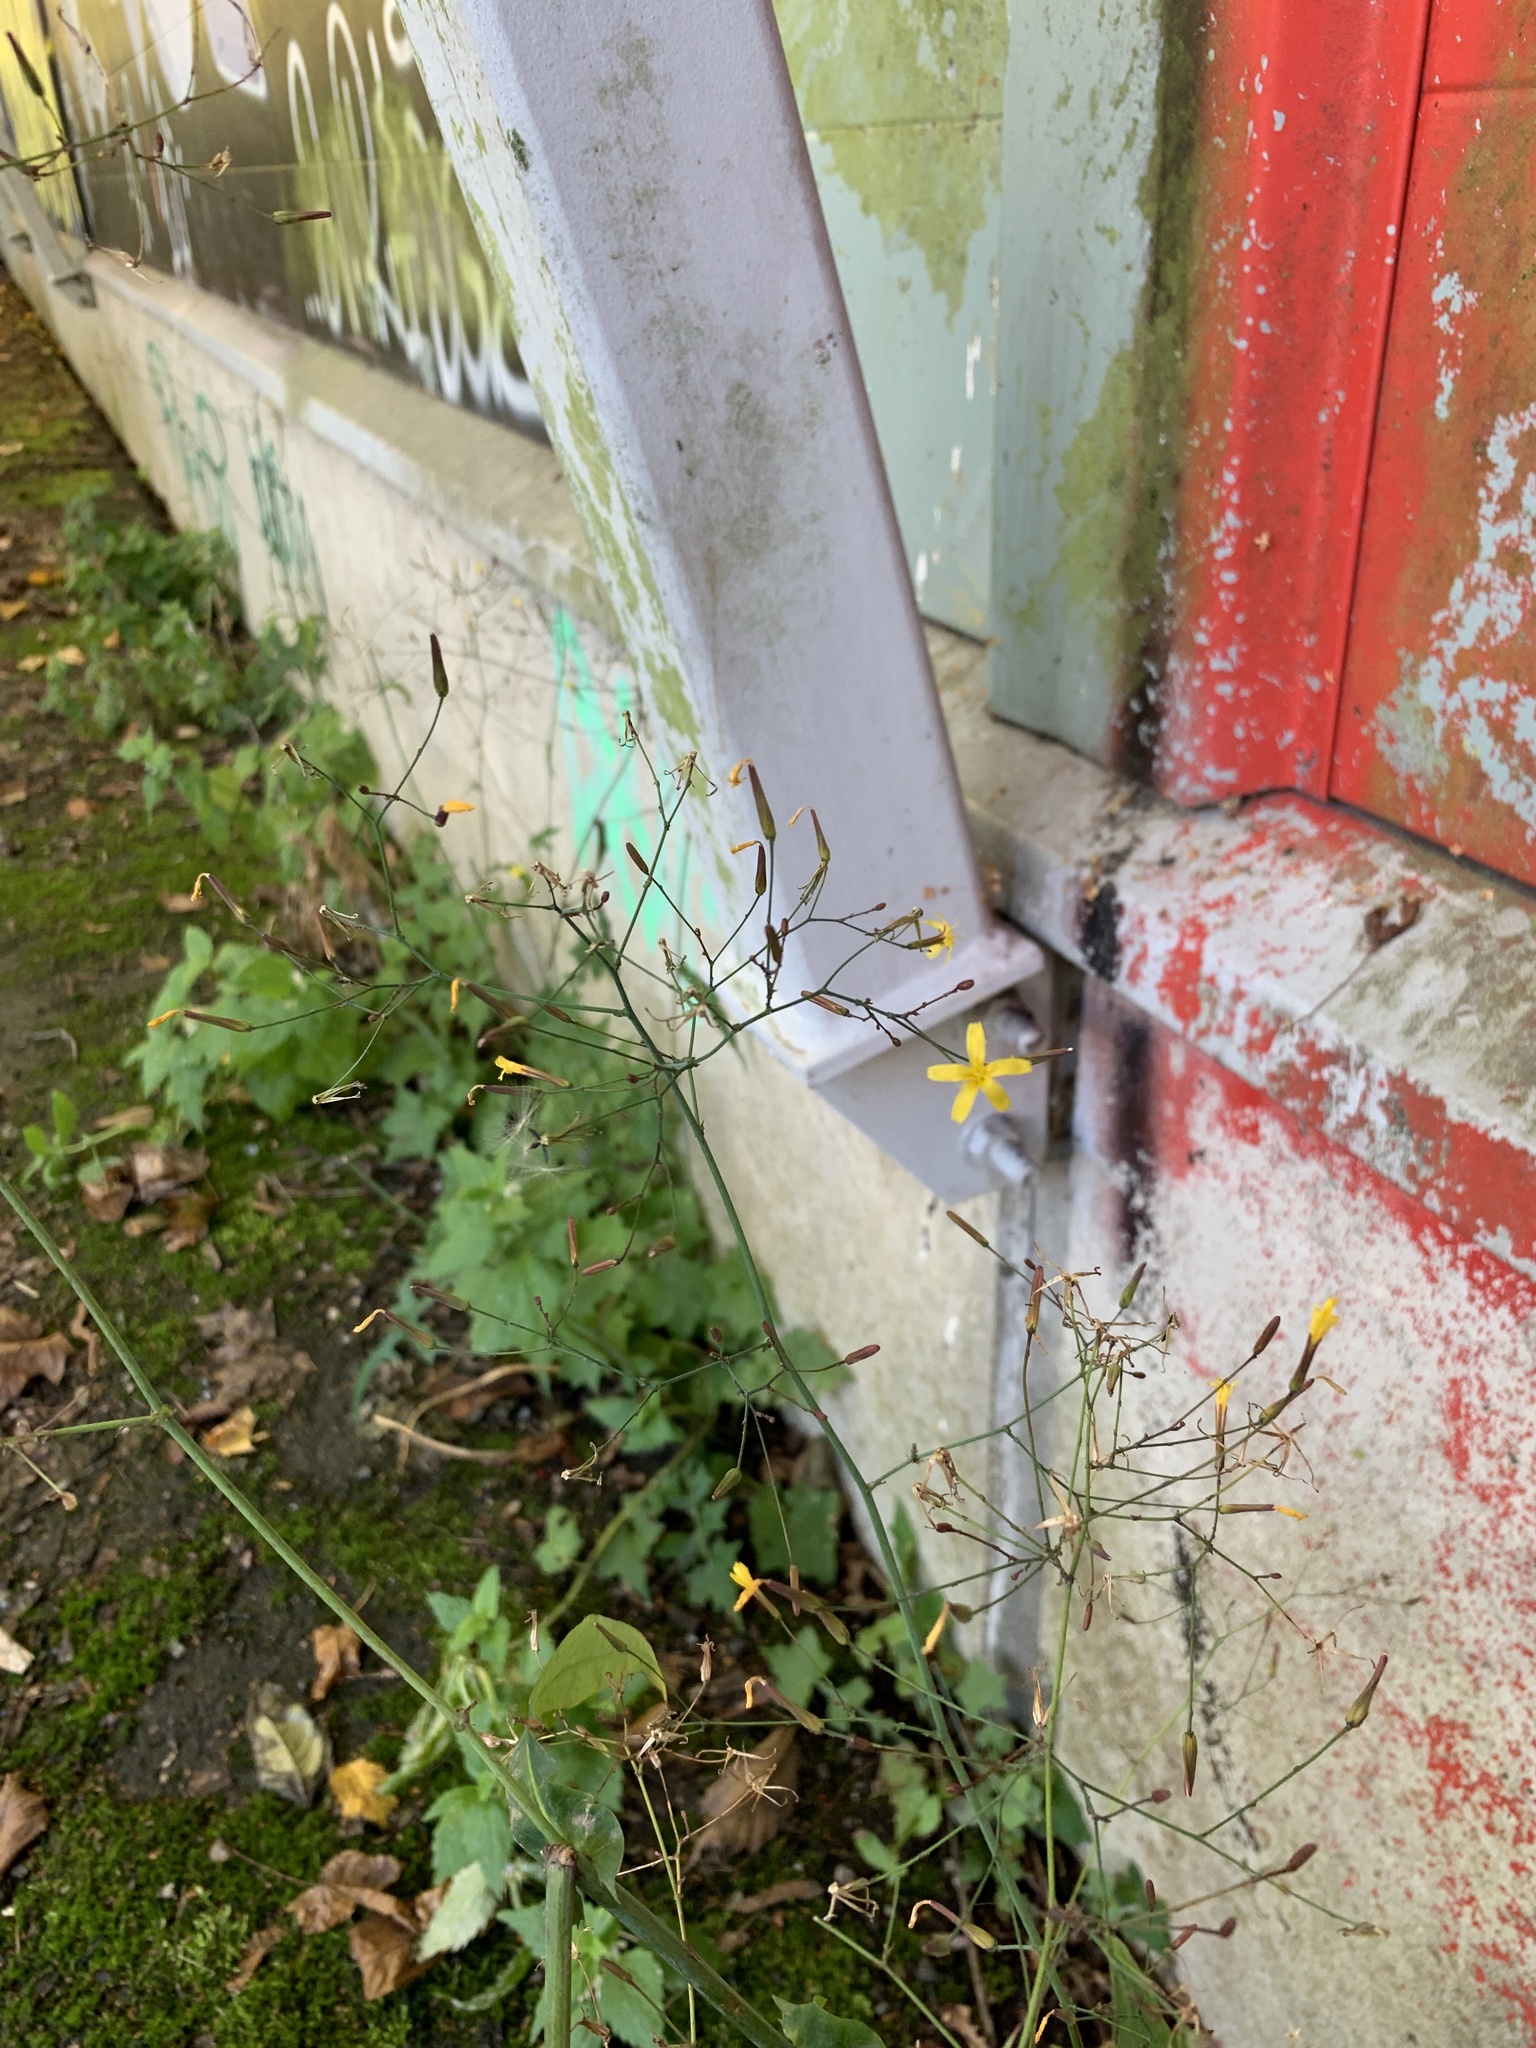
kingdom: Plantae
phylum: Tracheophyta
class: Magnoliopsida
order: Asterales
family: Asteraceae
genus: Mycelis
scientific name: Mycelis muralis
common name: Wall lettuce
